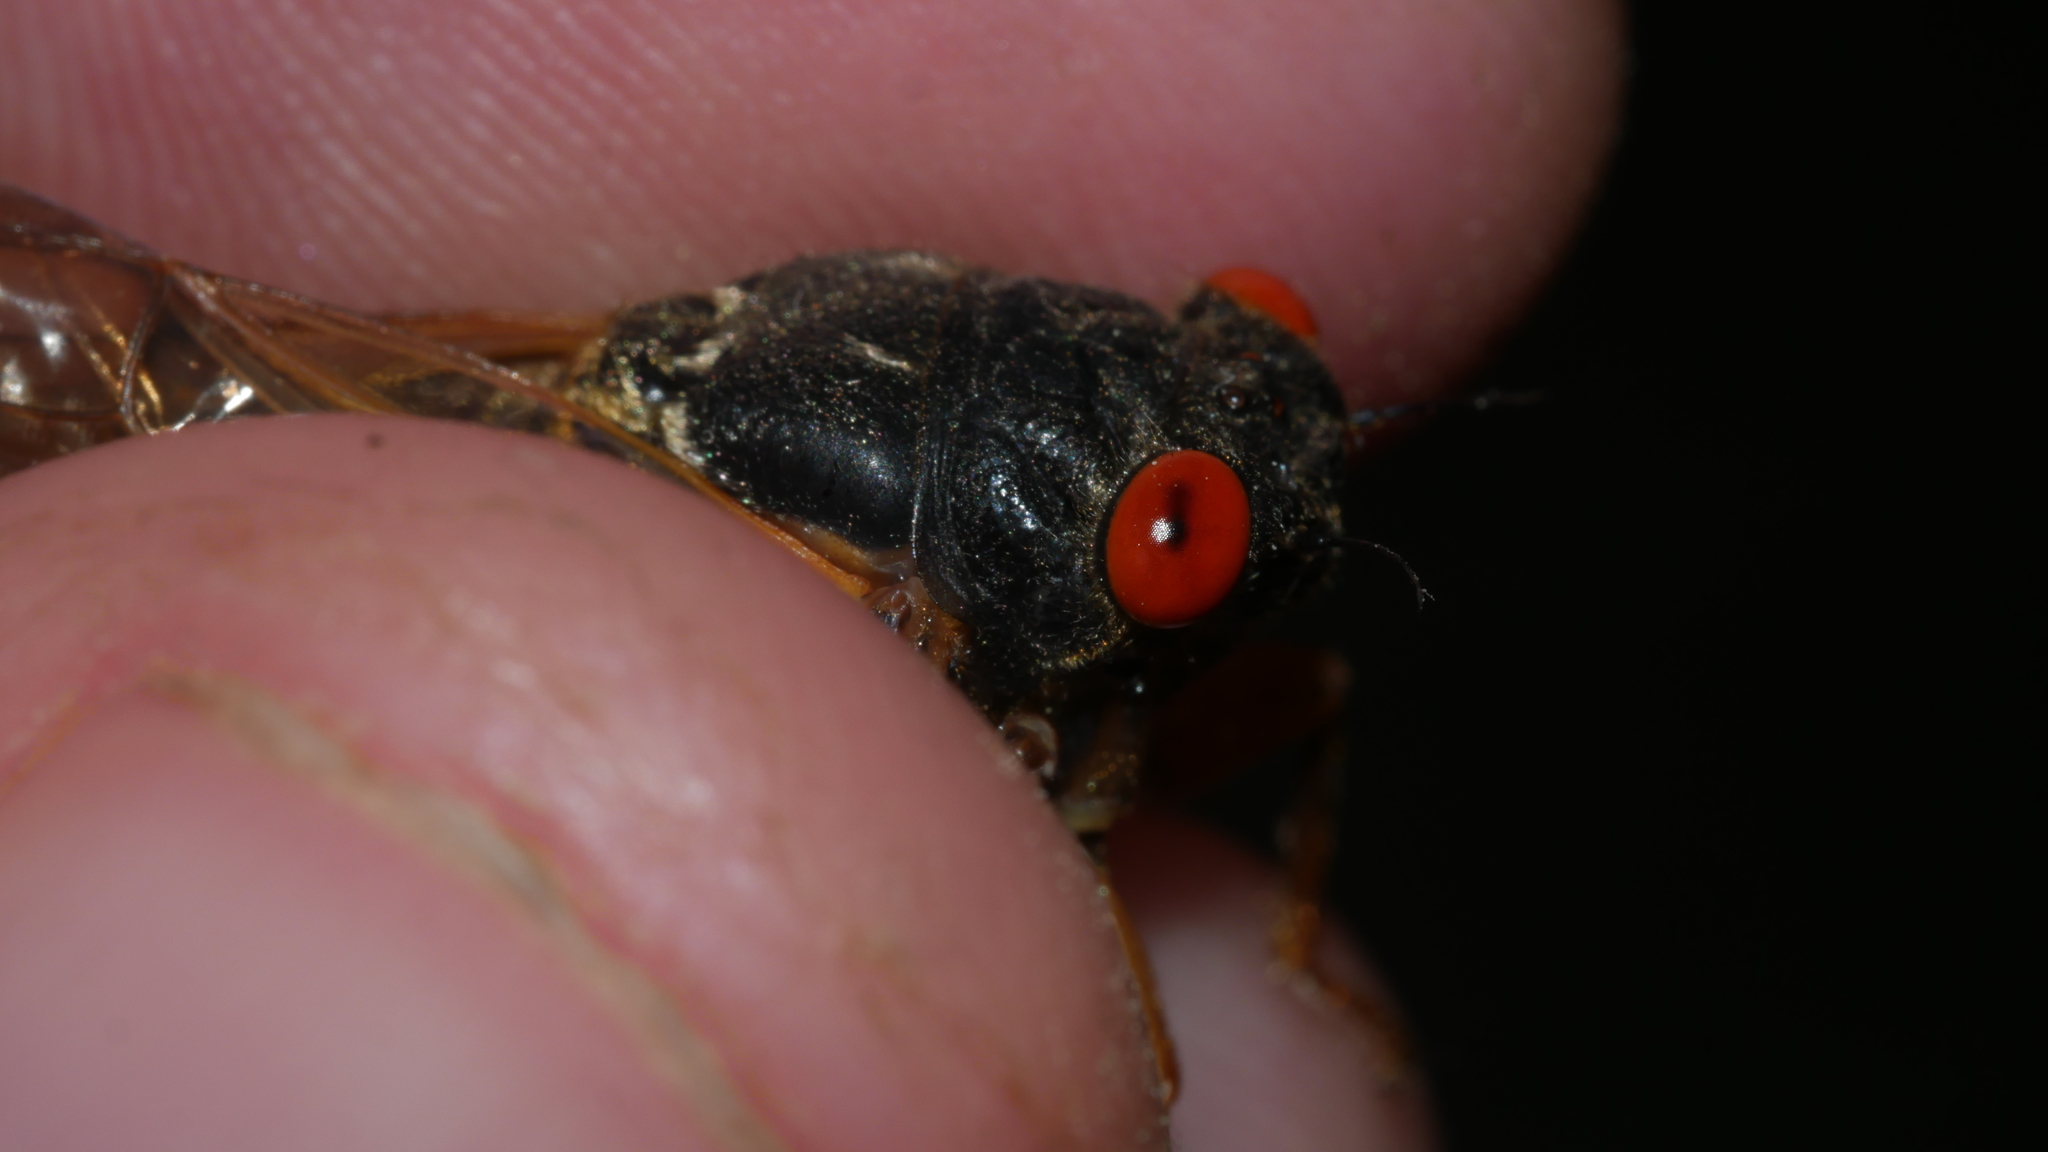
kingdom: Animalia
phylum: Arthropoda
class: Insecta
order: Hemiptera
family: Cicadidae
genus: Magicicada
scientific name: Magicicada septendecula
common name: Decula periodical cicada
